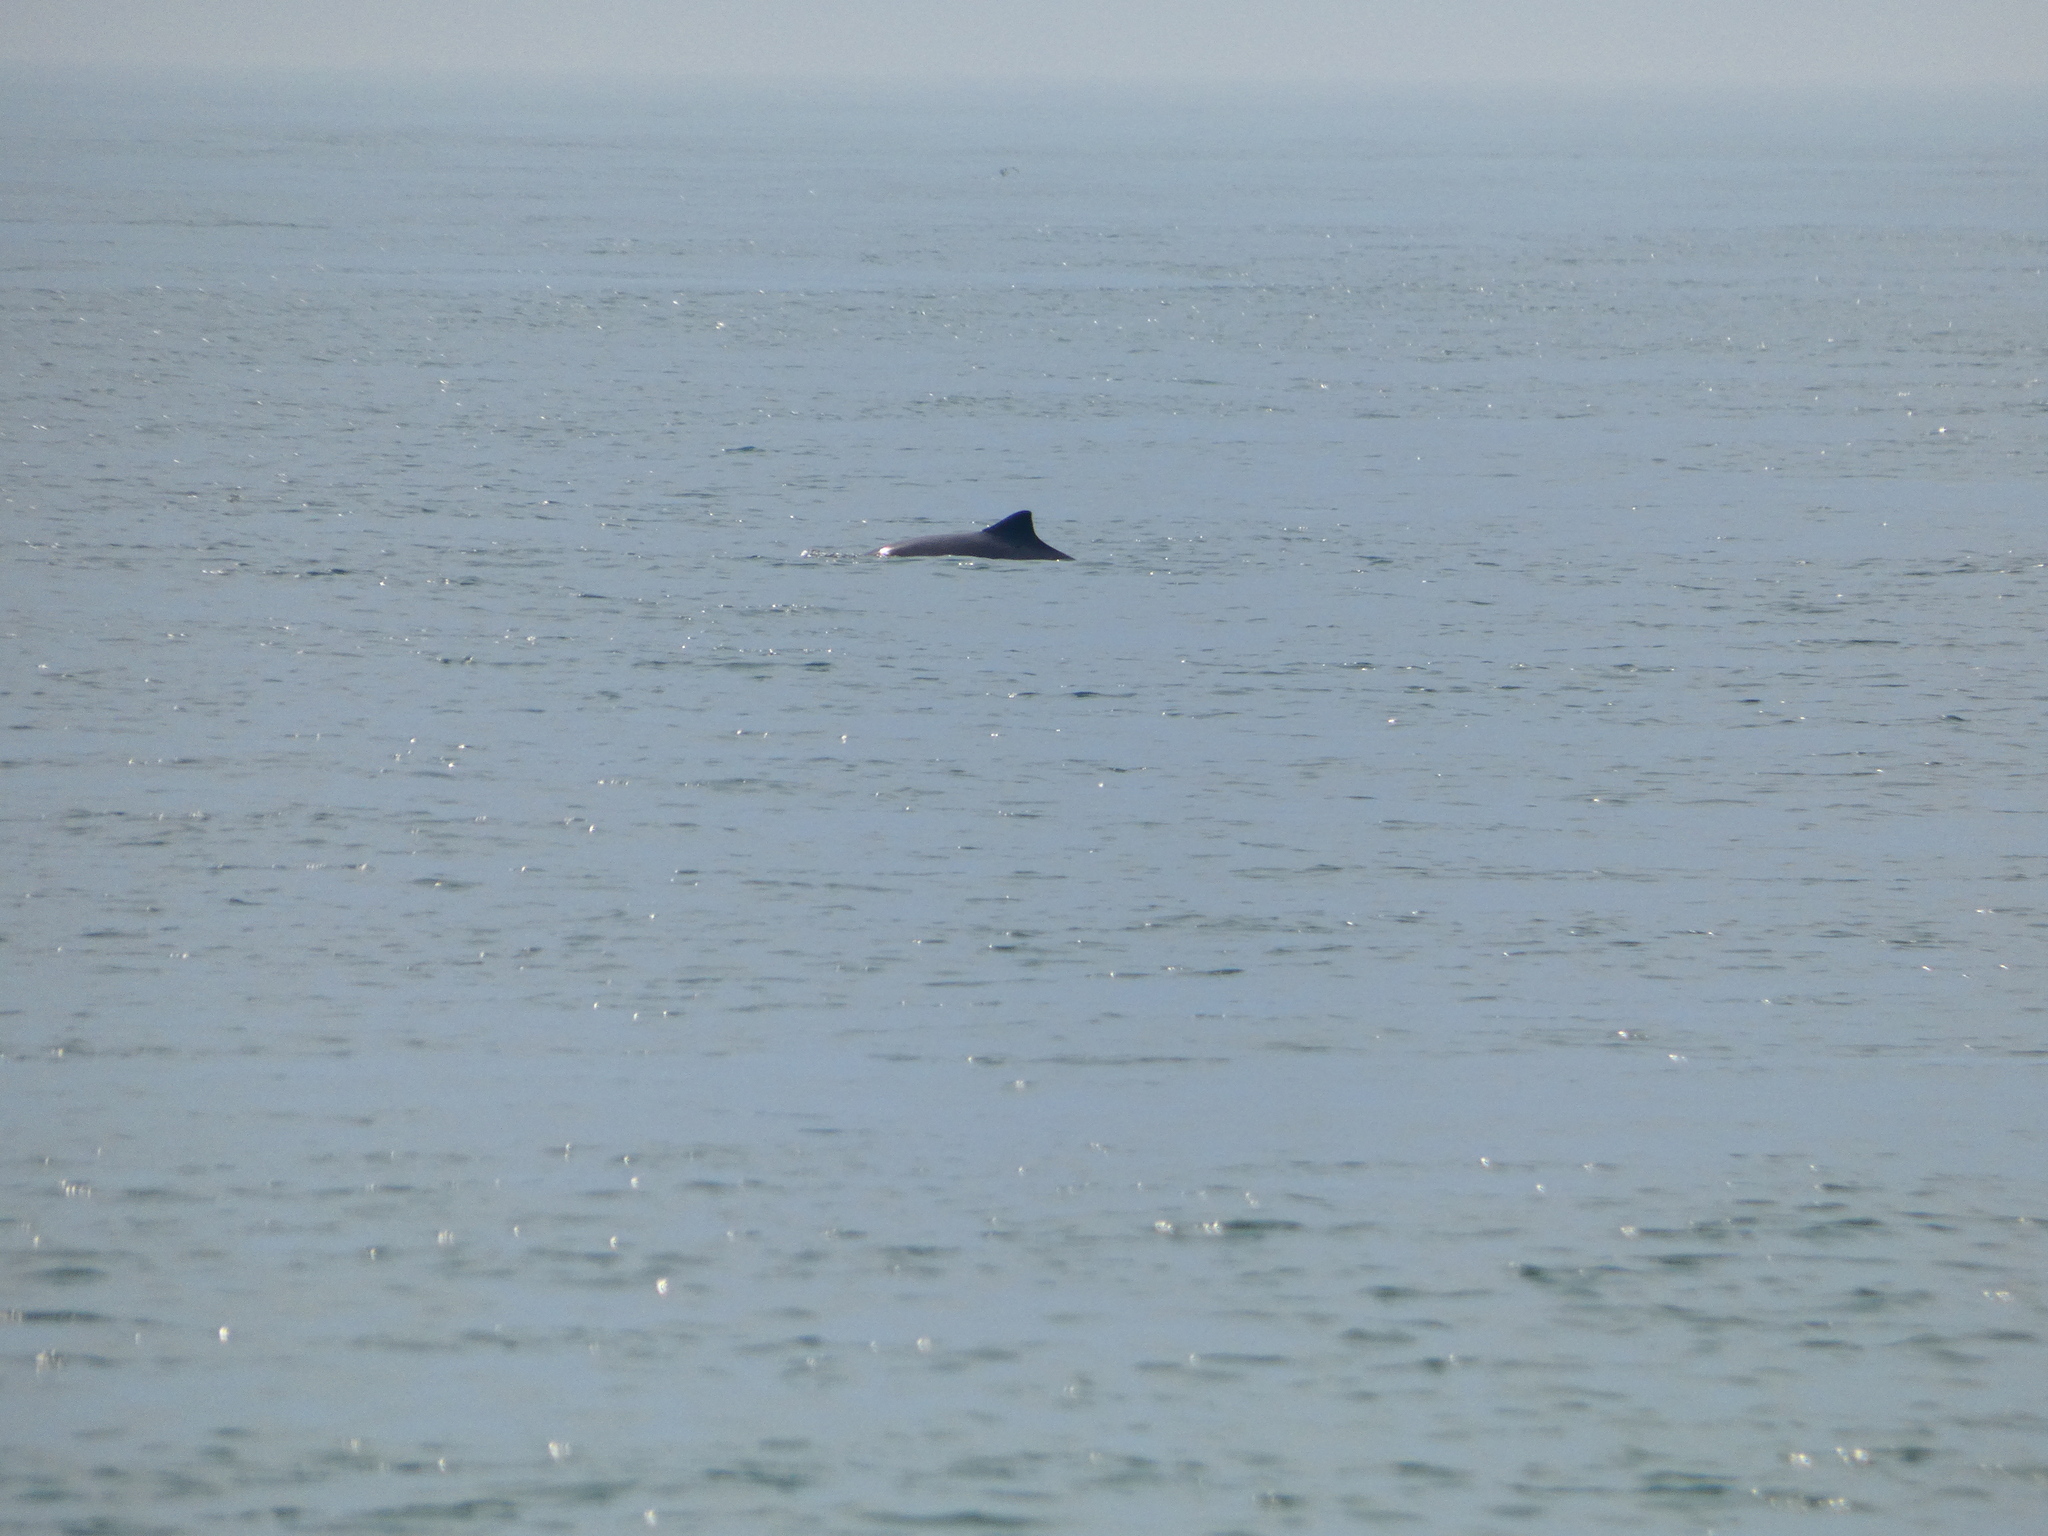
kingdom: Animalia
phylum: Chordata
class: Mammalia
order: Cetacea
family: Phocoenidae
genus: Phocoena
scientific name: Phocoena phocoena
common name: Harbor porpoise
